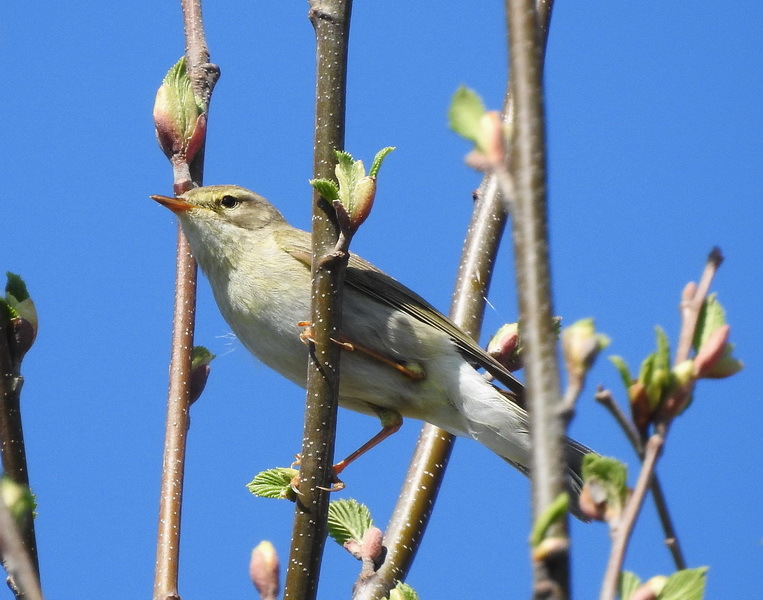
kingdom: Animalia
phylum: Chordata
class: Aves
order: Passeriformes
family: Phylloscopidae
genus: Phylloscopus
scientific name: Phylloscopus trochilus
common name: Willow warbler
